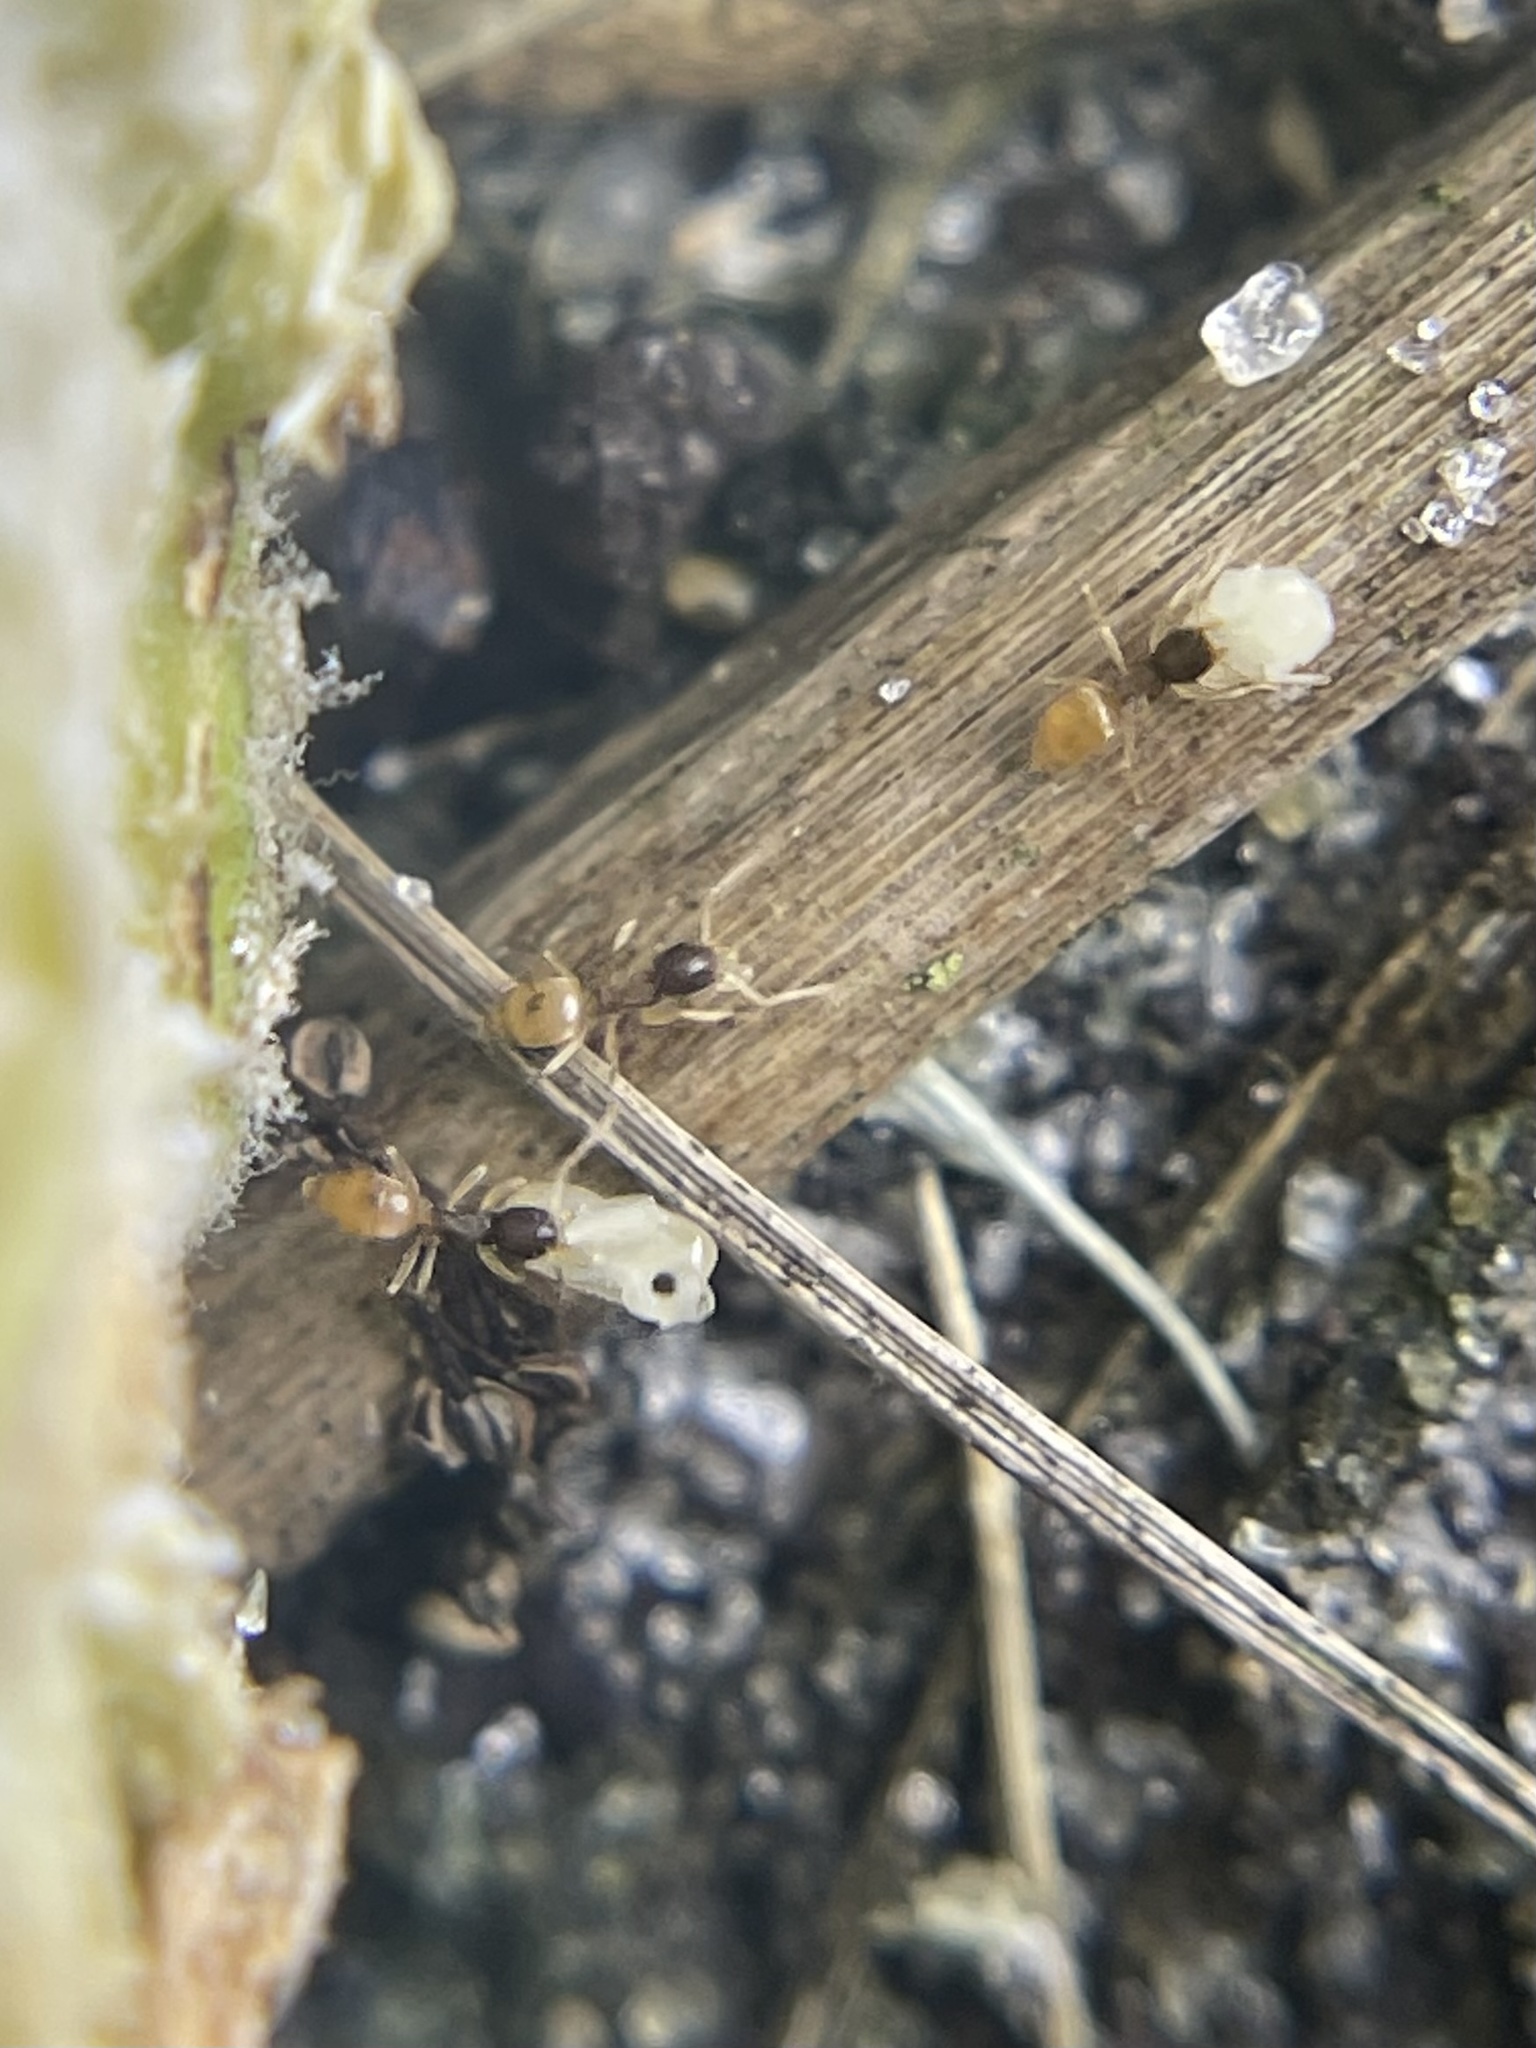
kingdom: Animalia
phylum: Arthropoda
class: Insecta
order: Hymenoptera
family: Formicidae
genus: Tapinoma
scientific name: Tapinoma melanocephalum
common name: Ghost ant
